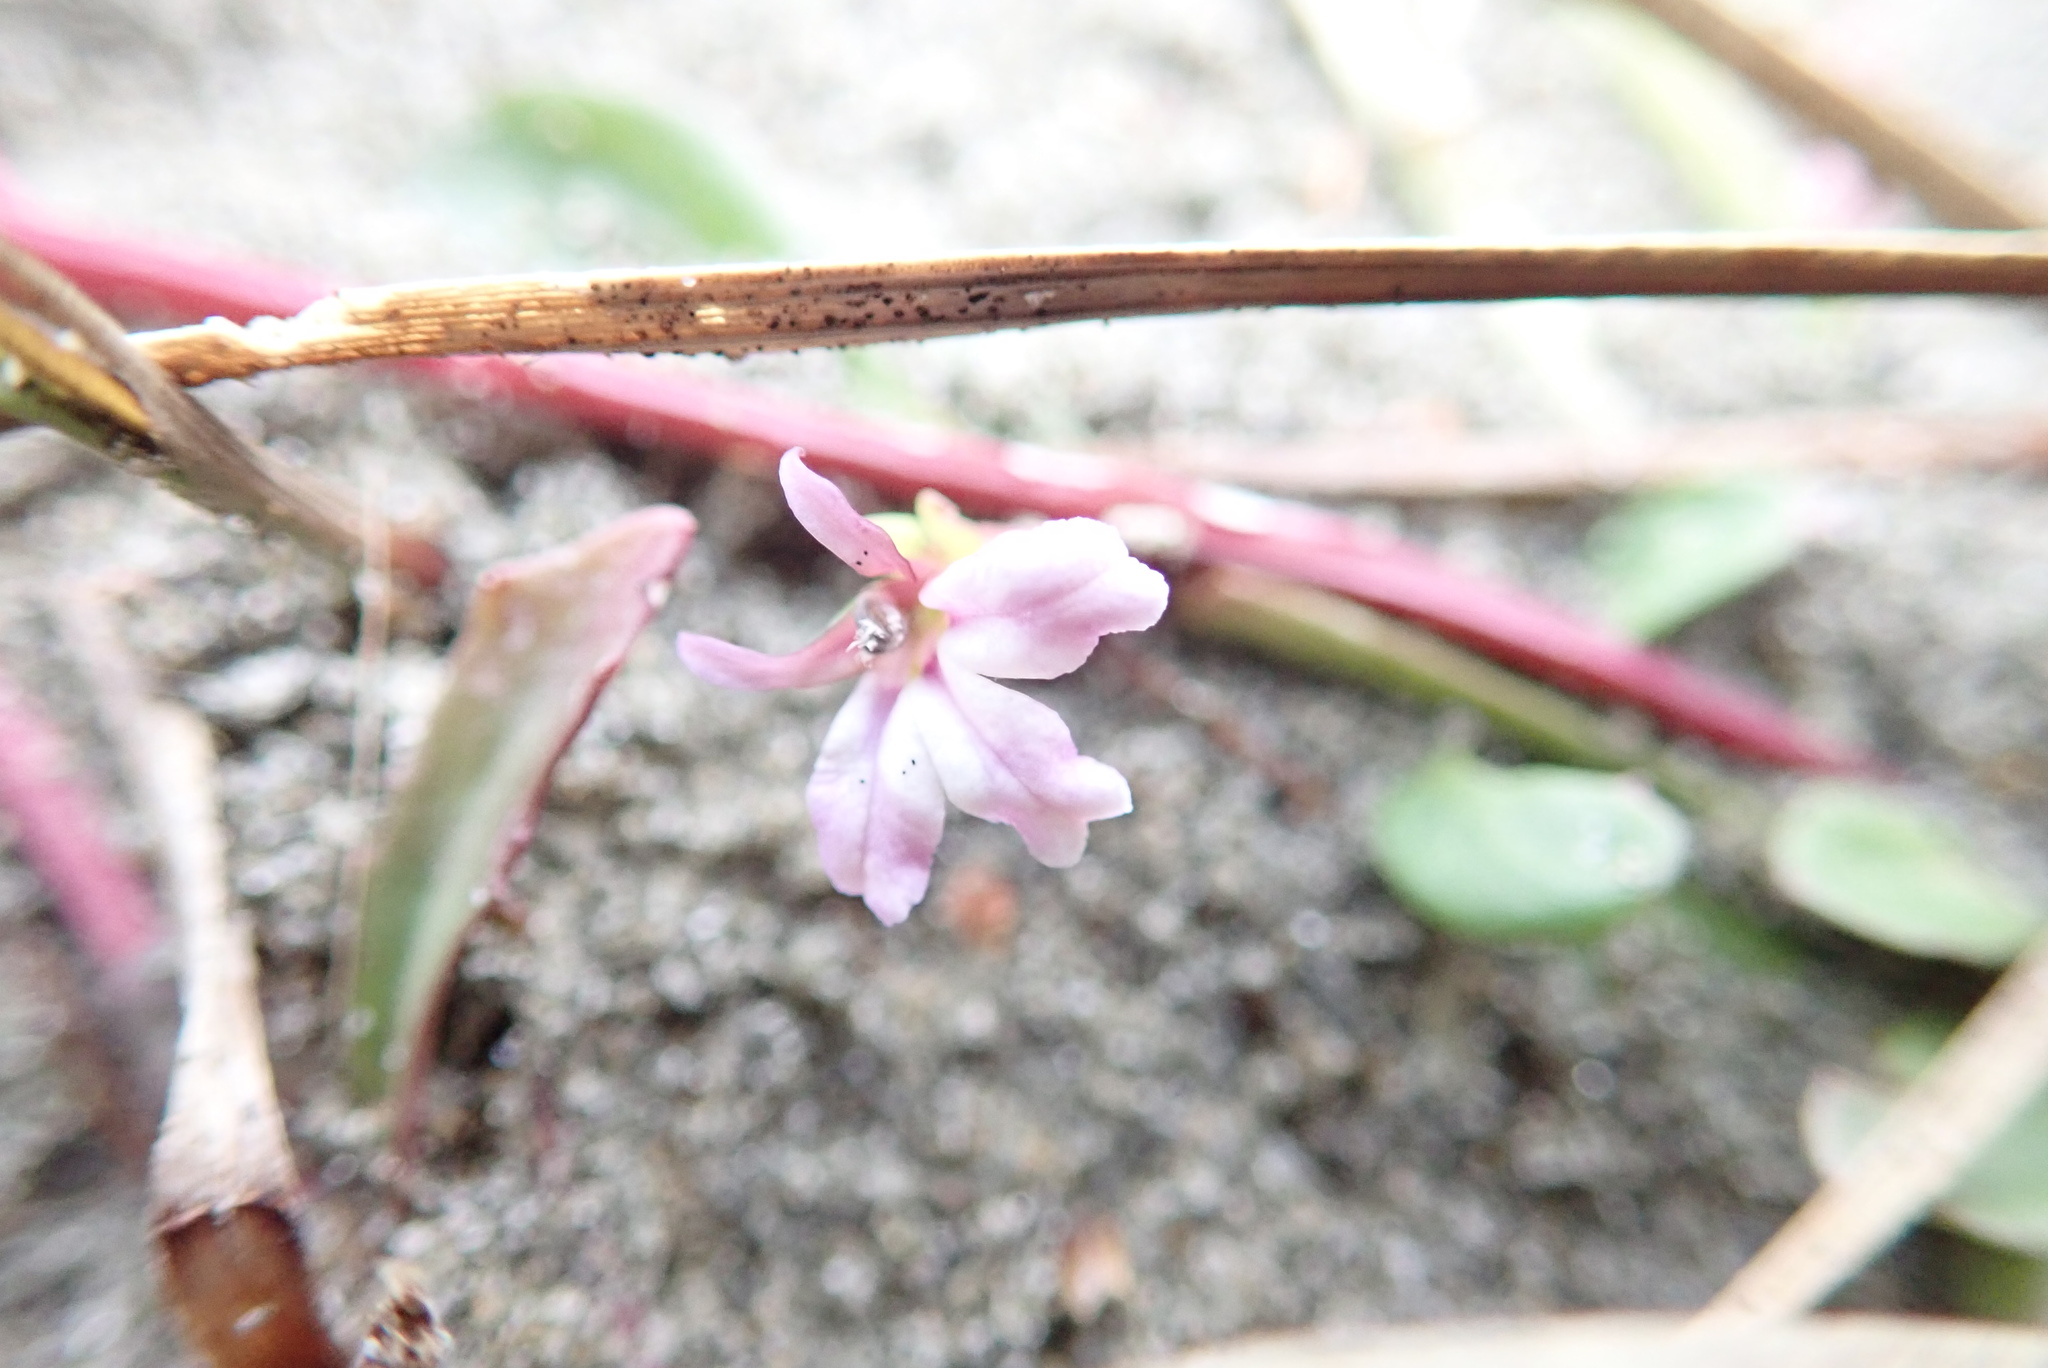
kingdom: Plantae
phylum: Tracheophyta
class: Magnoliopsida
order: Asterales
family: Campanulaceae
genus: Lobelia
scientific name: Lobelia anceps
